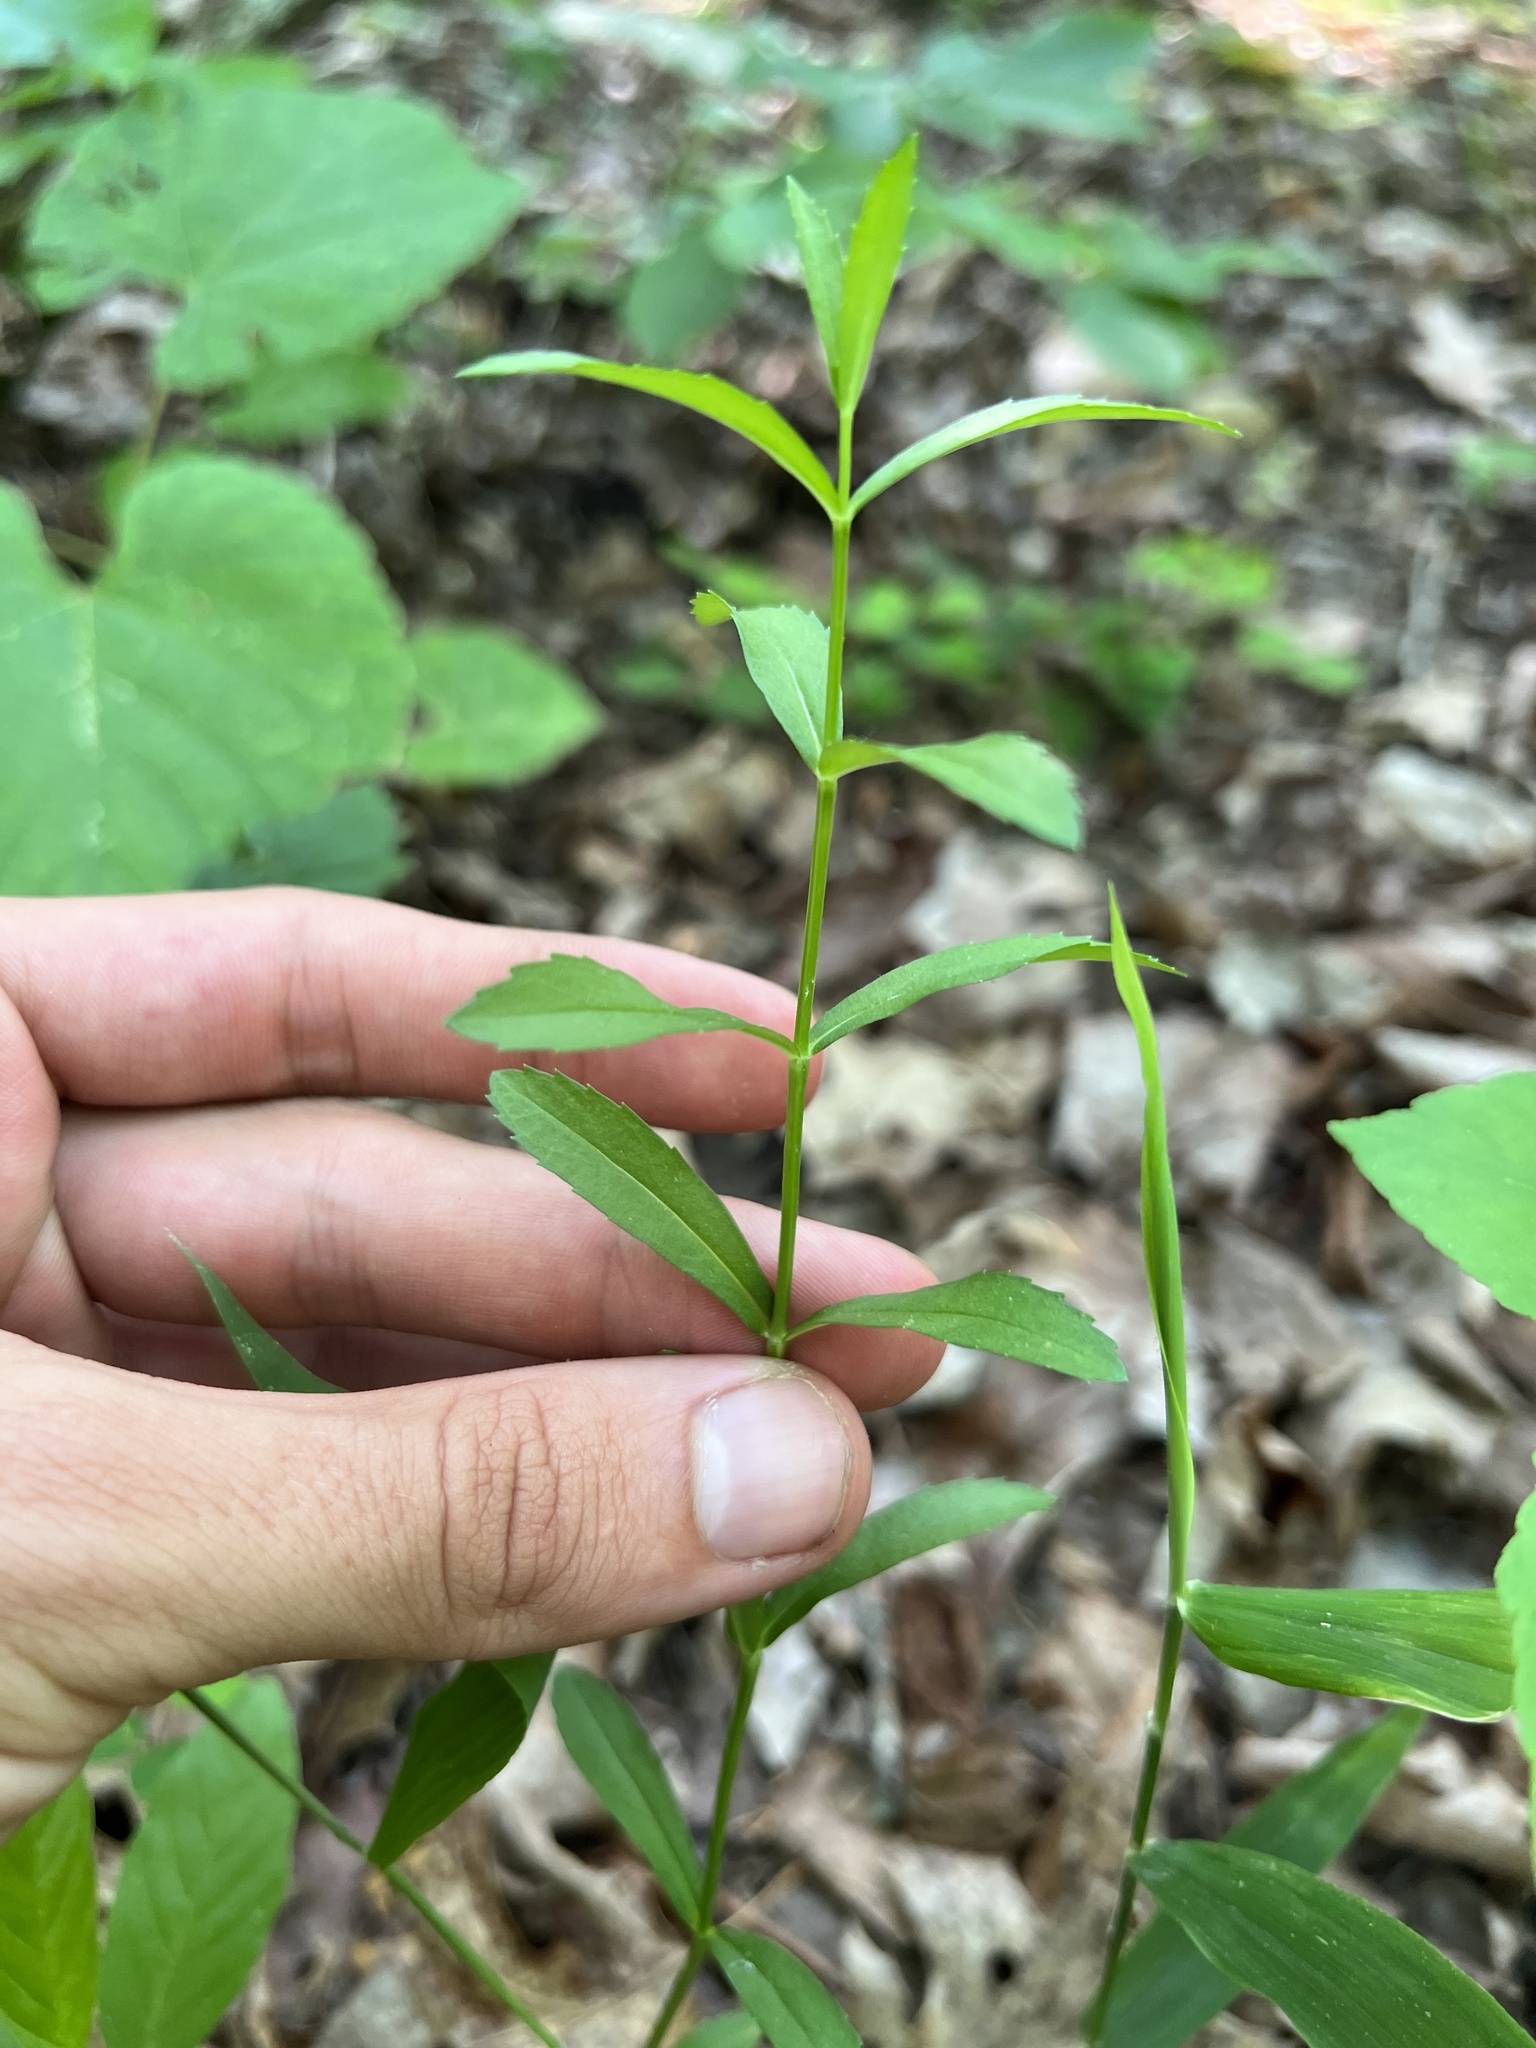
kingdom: Plantae
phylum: Tracheophyta
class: Magnoliopsida
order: Lamiales
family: Lamiaceae
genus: Physostegia
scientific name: Physostegia virginiana
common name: Obedient-plant
